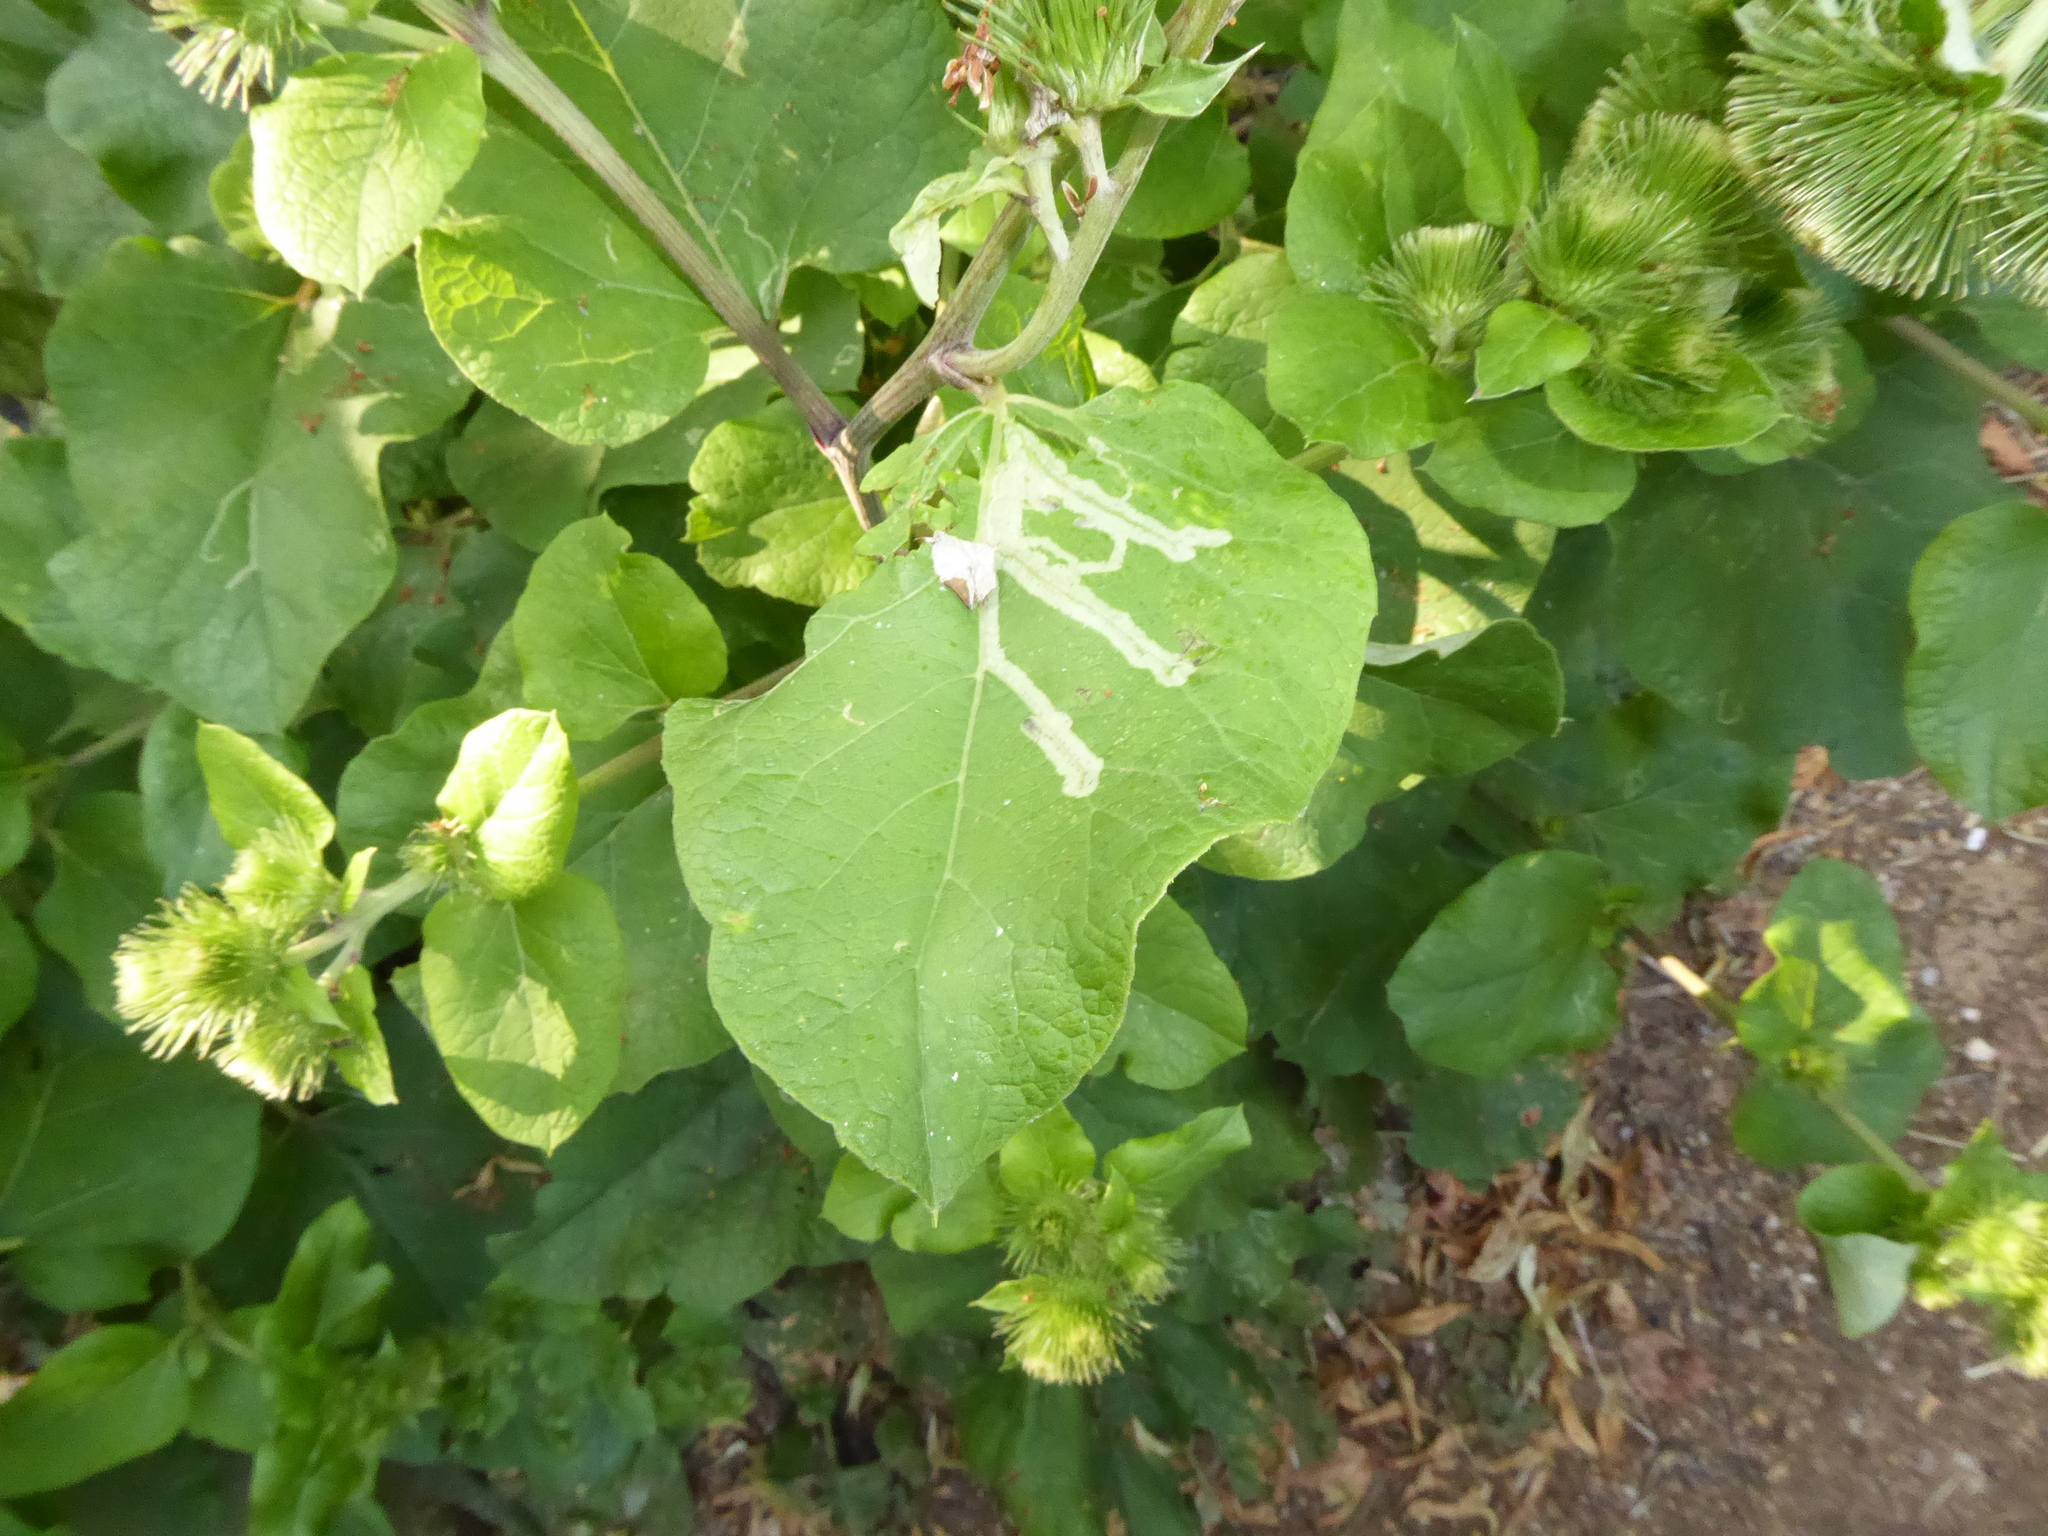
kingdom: Animalia
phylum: Arthropoda
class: Insecta
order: Diptera
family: Agromyzidae
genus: Phytomyza
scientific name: Phytomyza lappae
